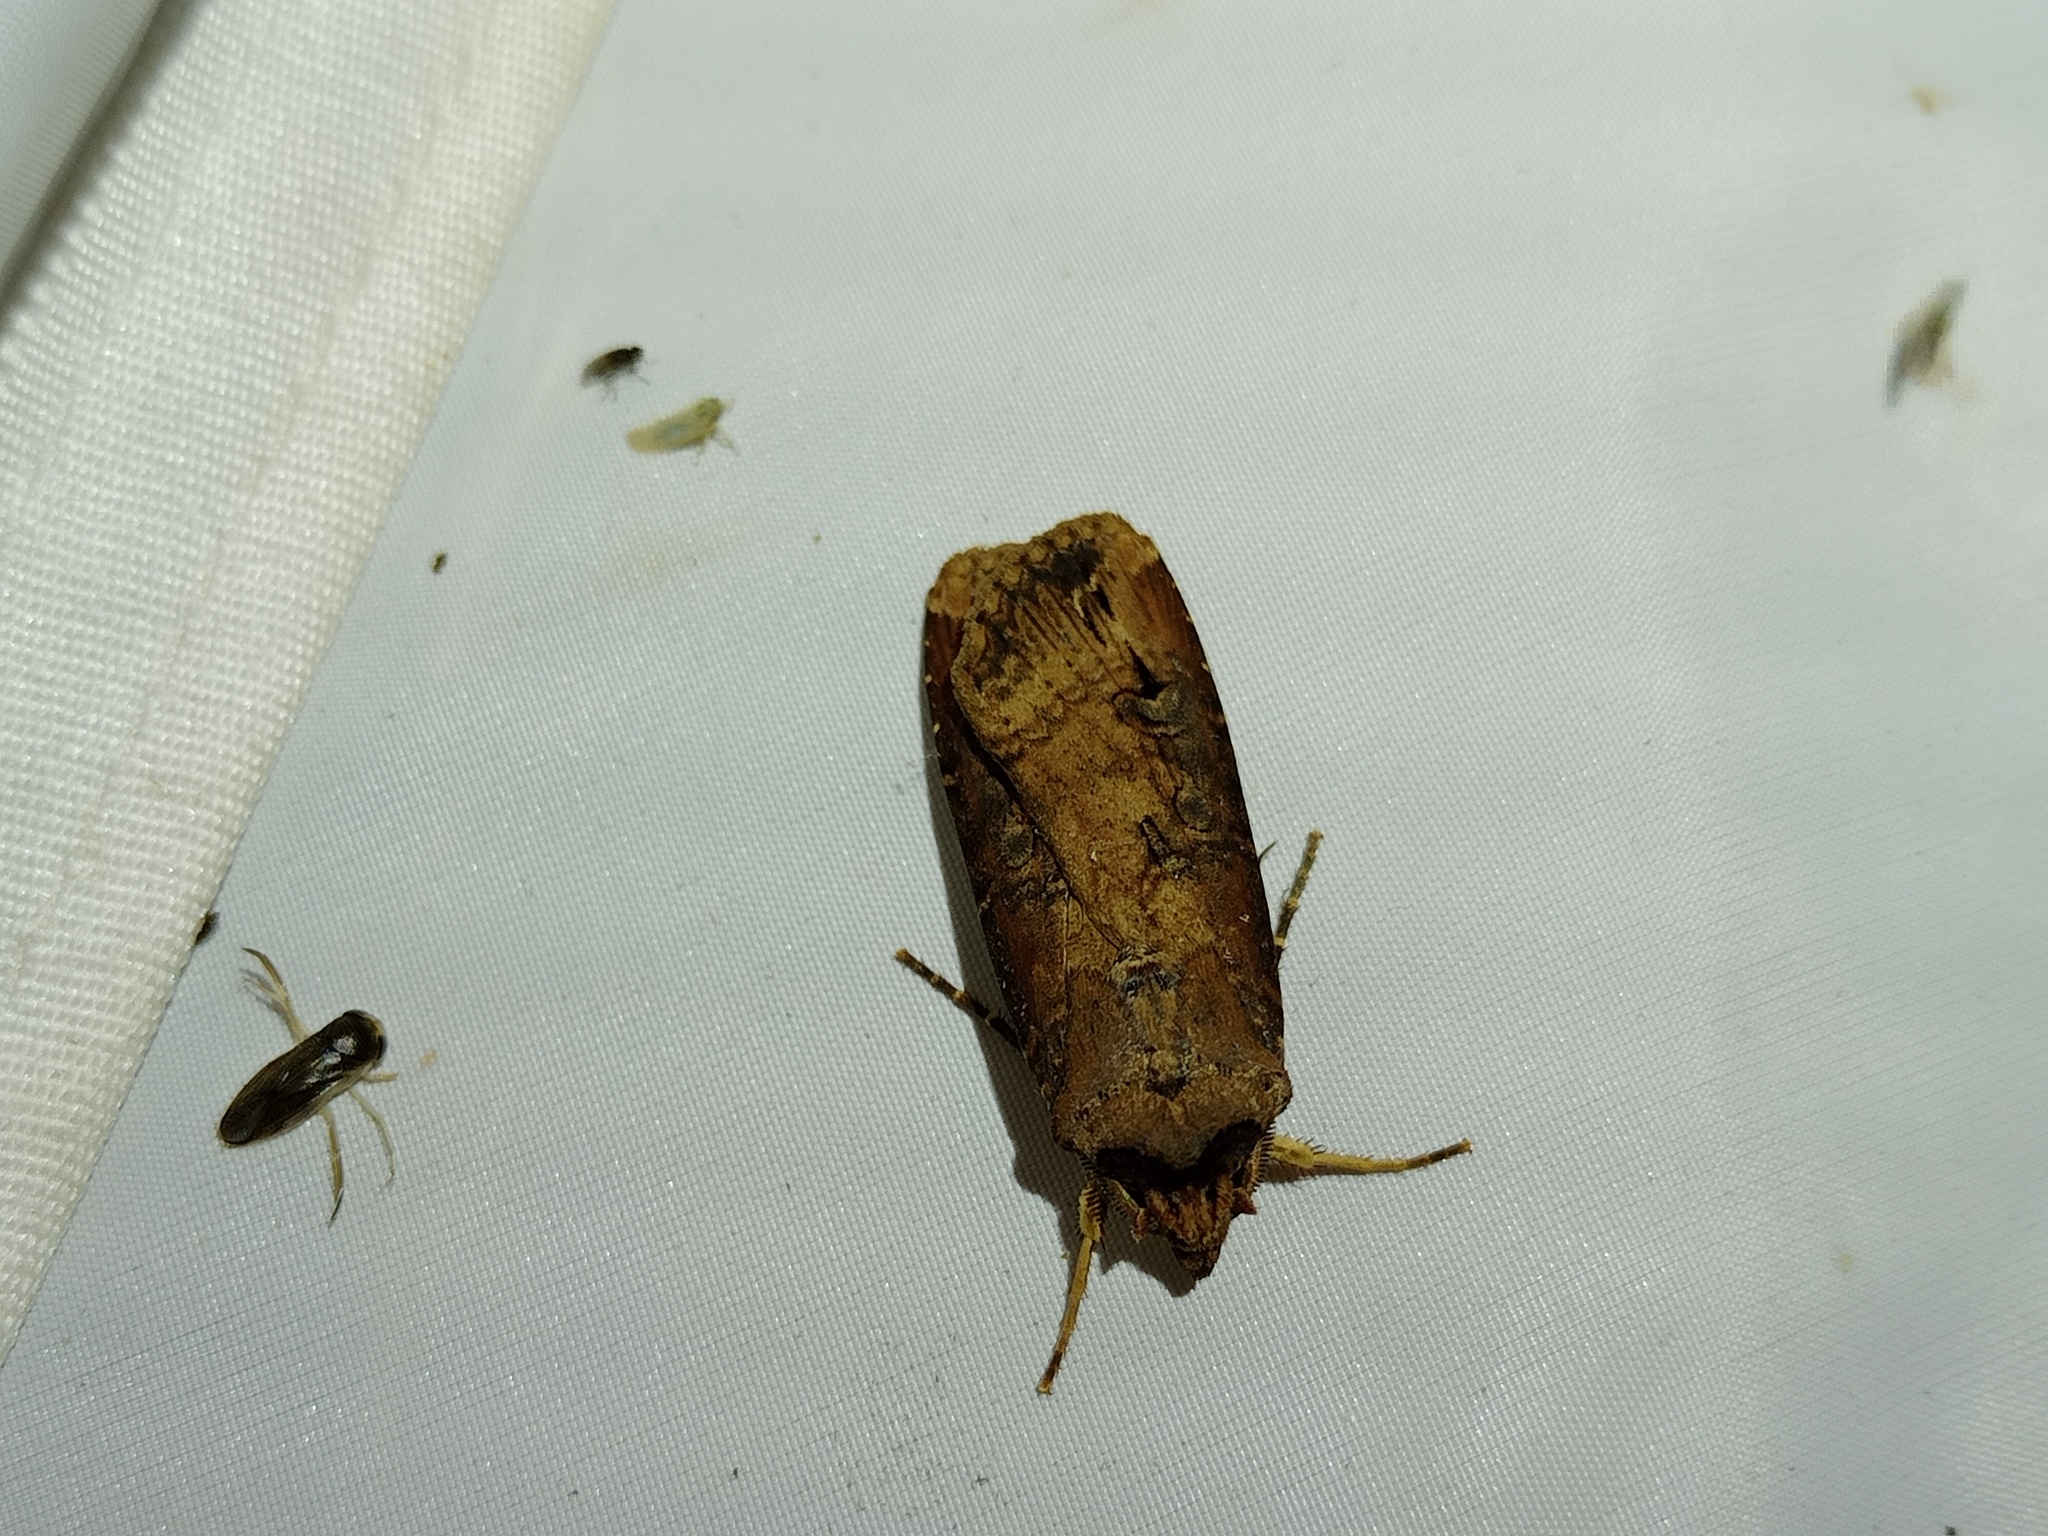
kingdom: Animalia
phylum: Arthropoda
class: Insecta
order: Lepidoptera
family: Noctuidae
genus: Agrotis
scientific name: Agrotis ipsilon
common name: Dark sword-grass
